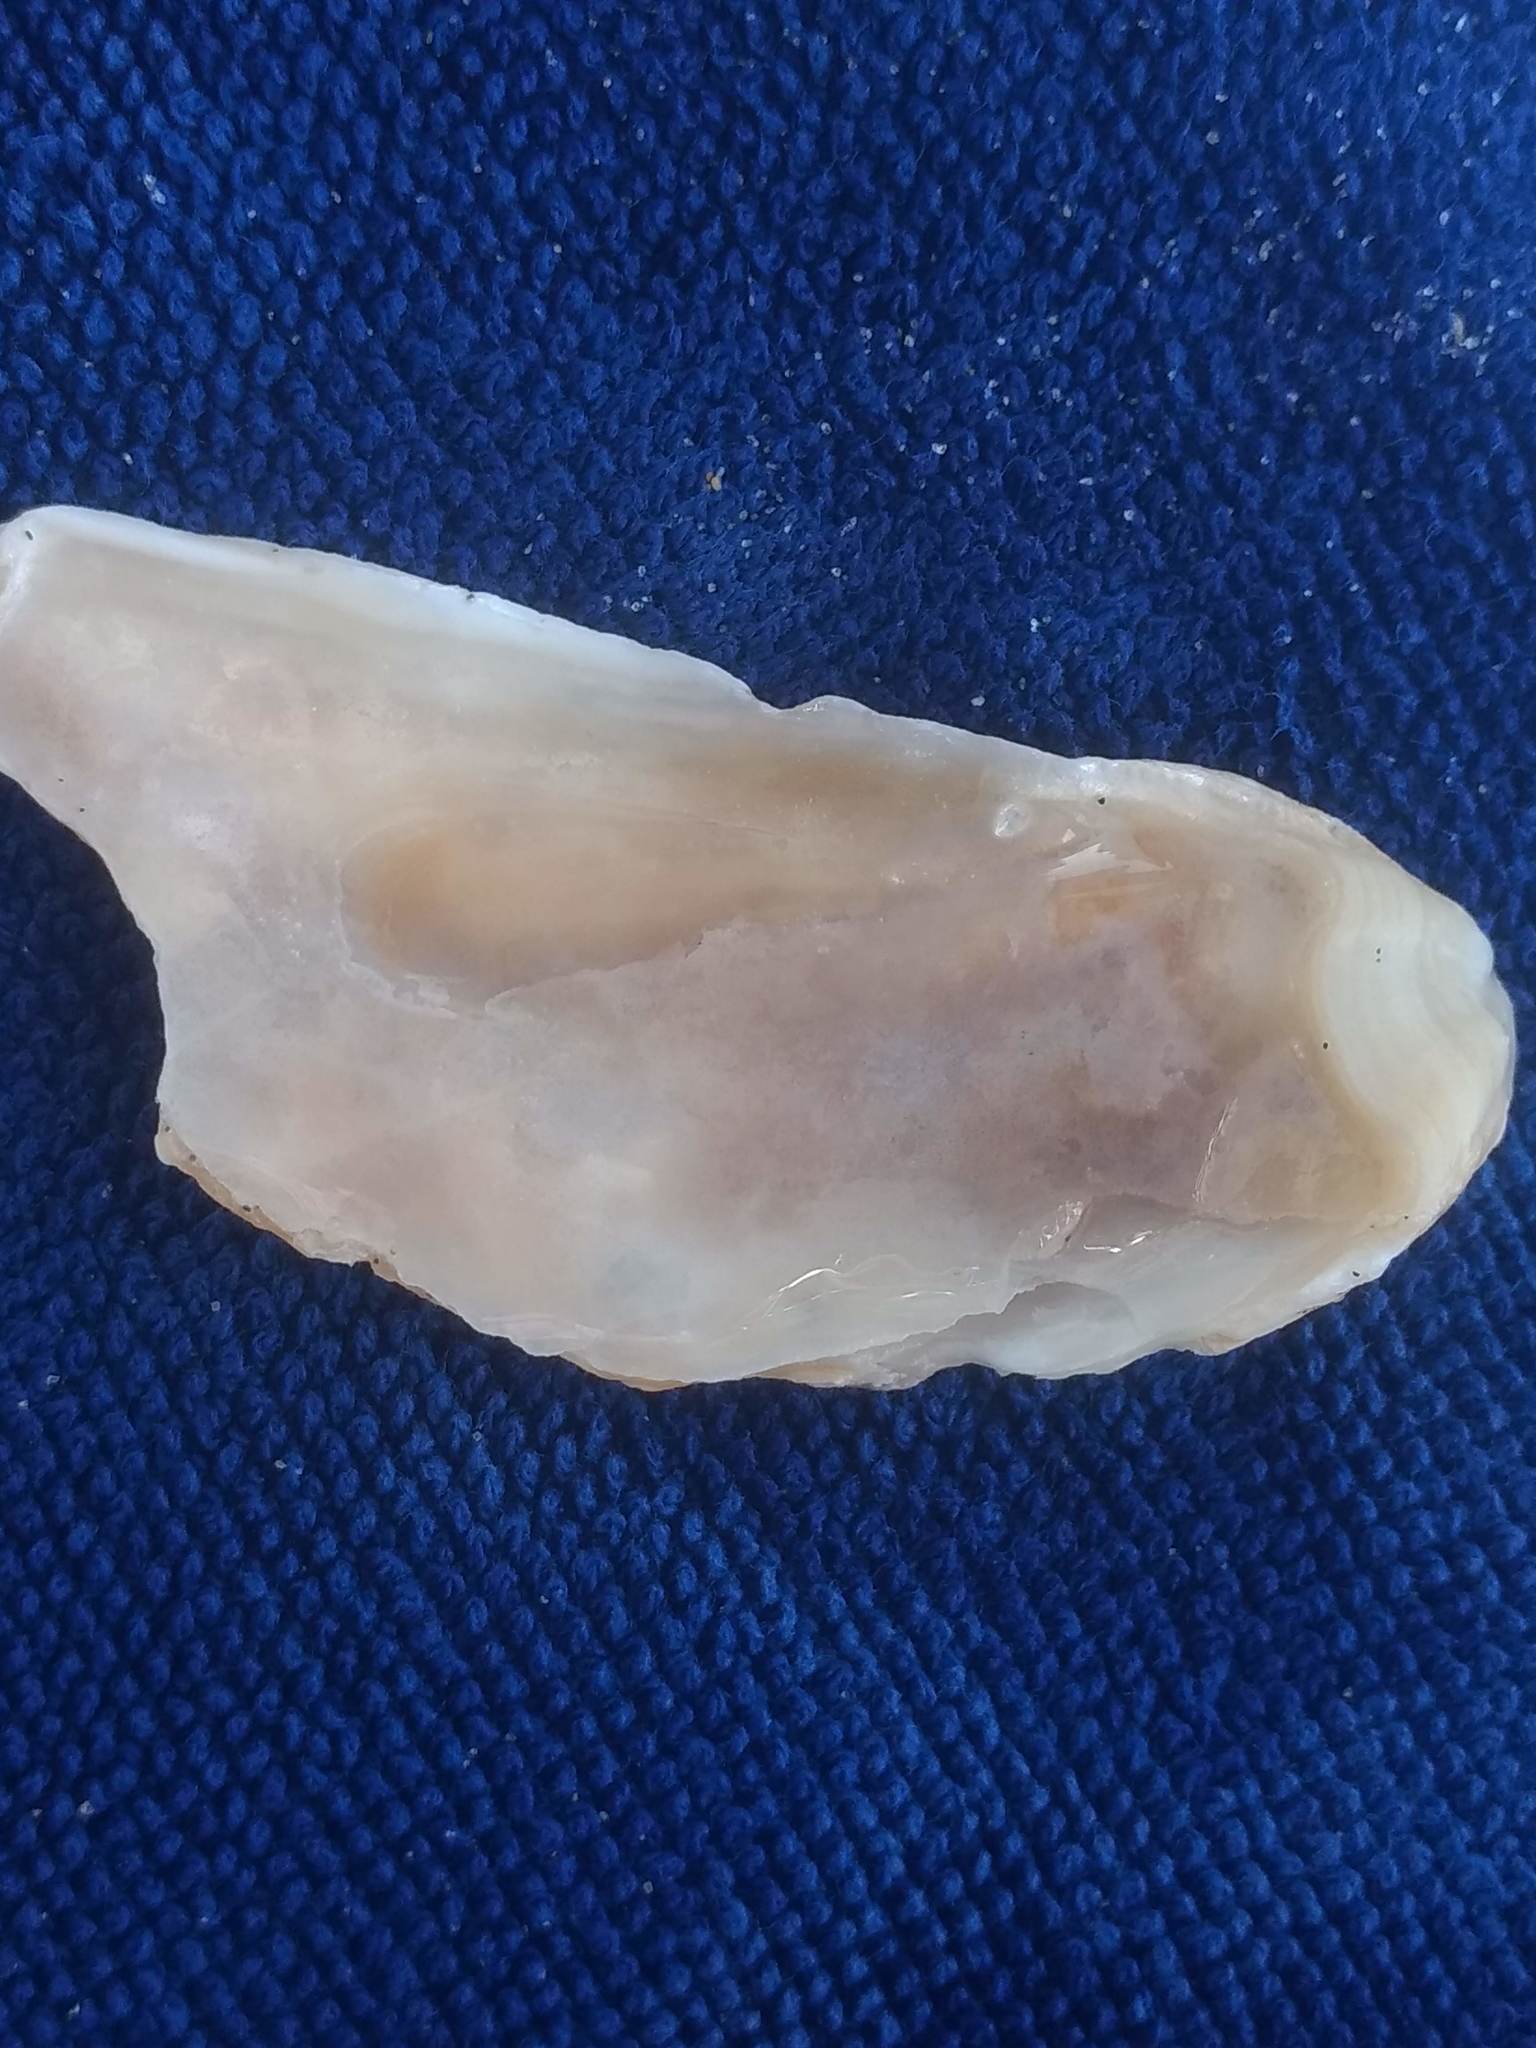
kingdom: Animalia
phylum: Mollusca
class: Bivalvia
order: Ostreida
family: Ostreidae
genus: Ostrea
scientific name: Ostrea lurida
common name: Olympia flat oyster
